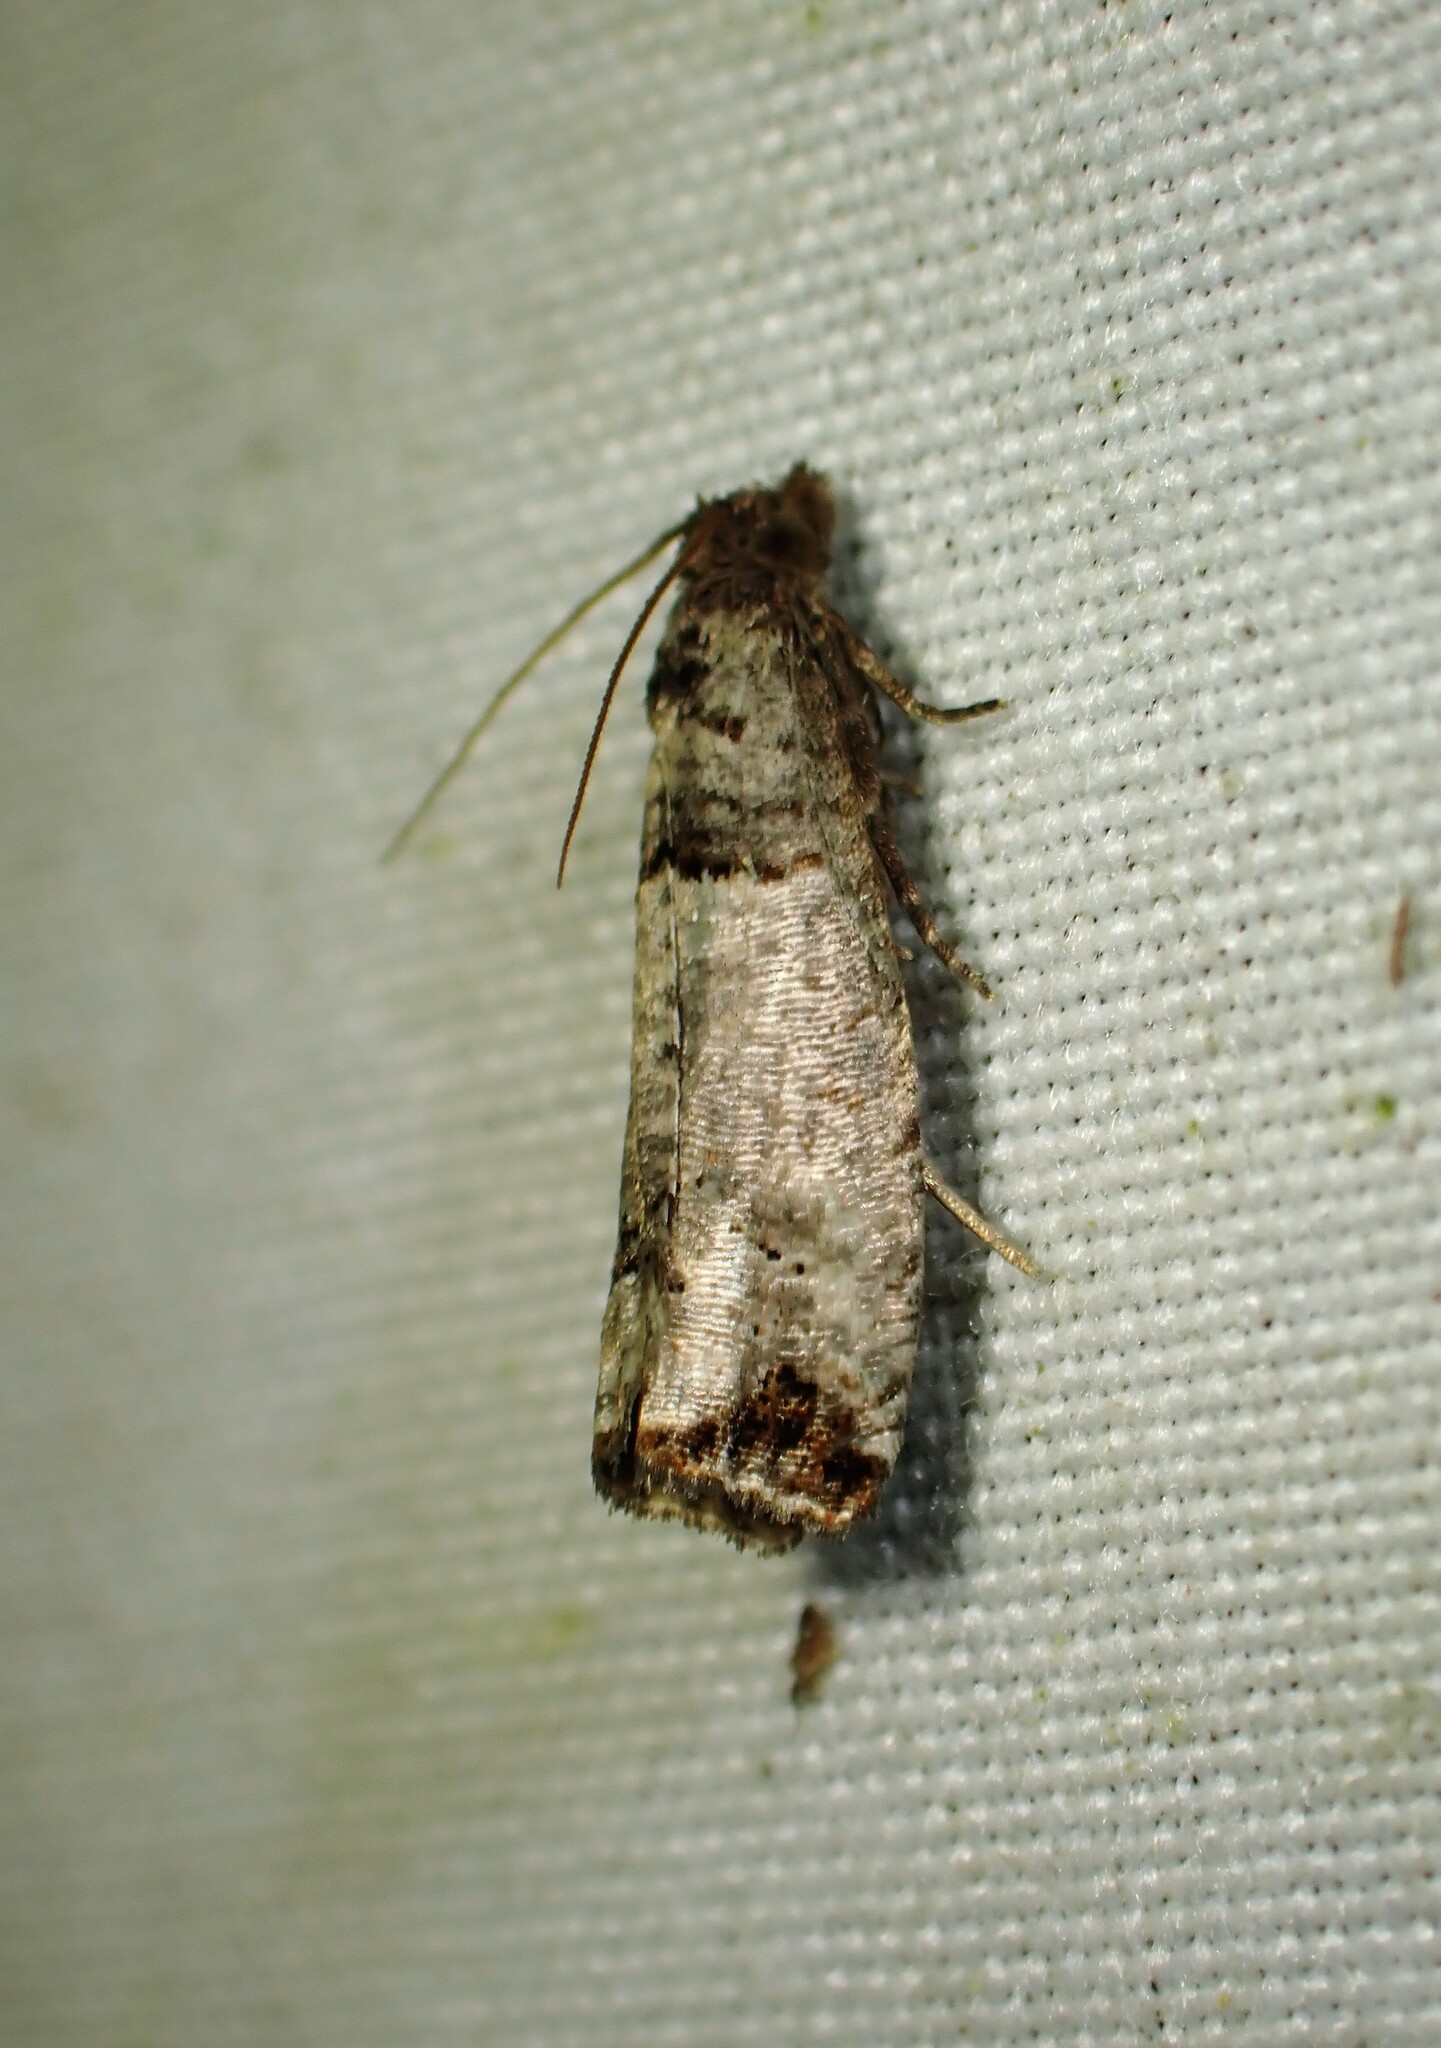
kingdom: Animalia
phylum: Arthropoda
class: Insecta
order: Lepidoptera
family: Tortricidae
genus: Notocelia
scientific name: Notocelia culminana
